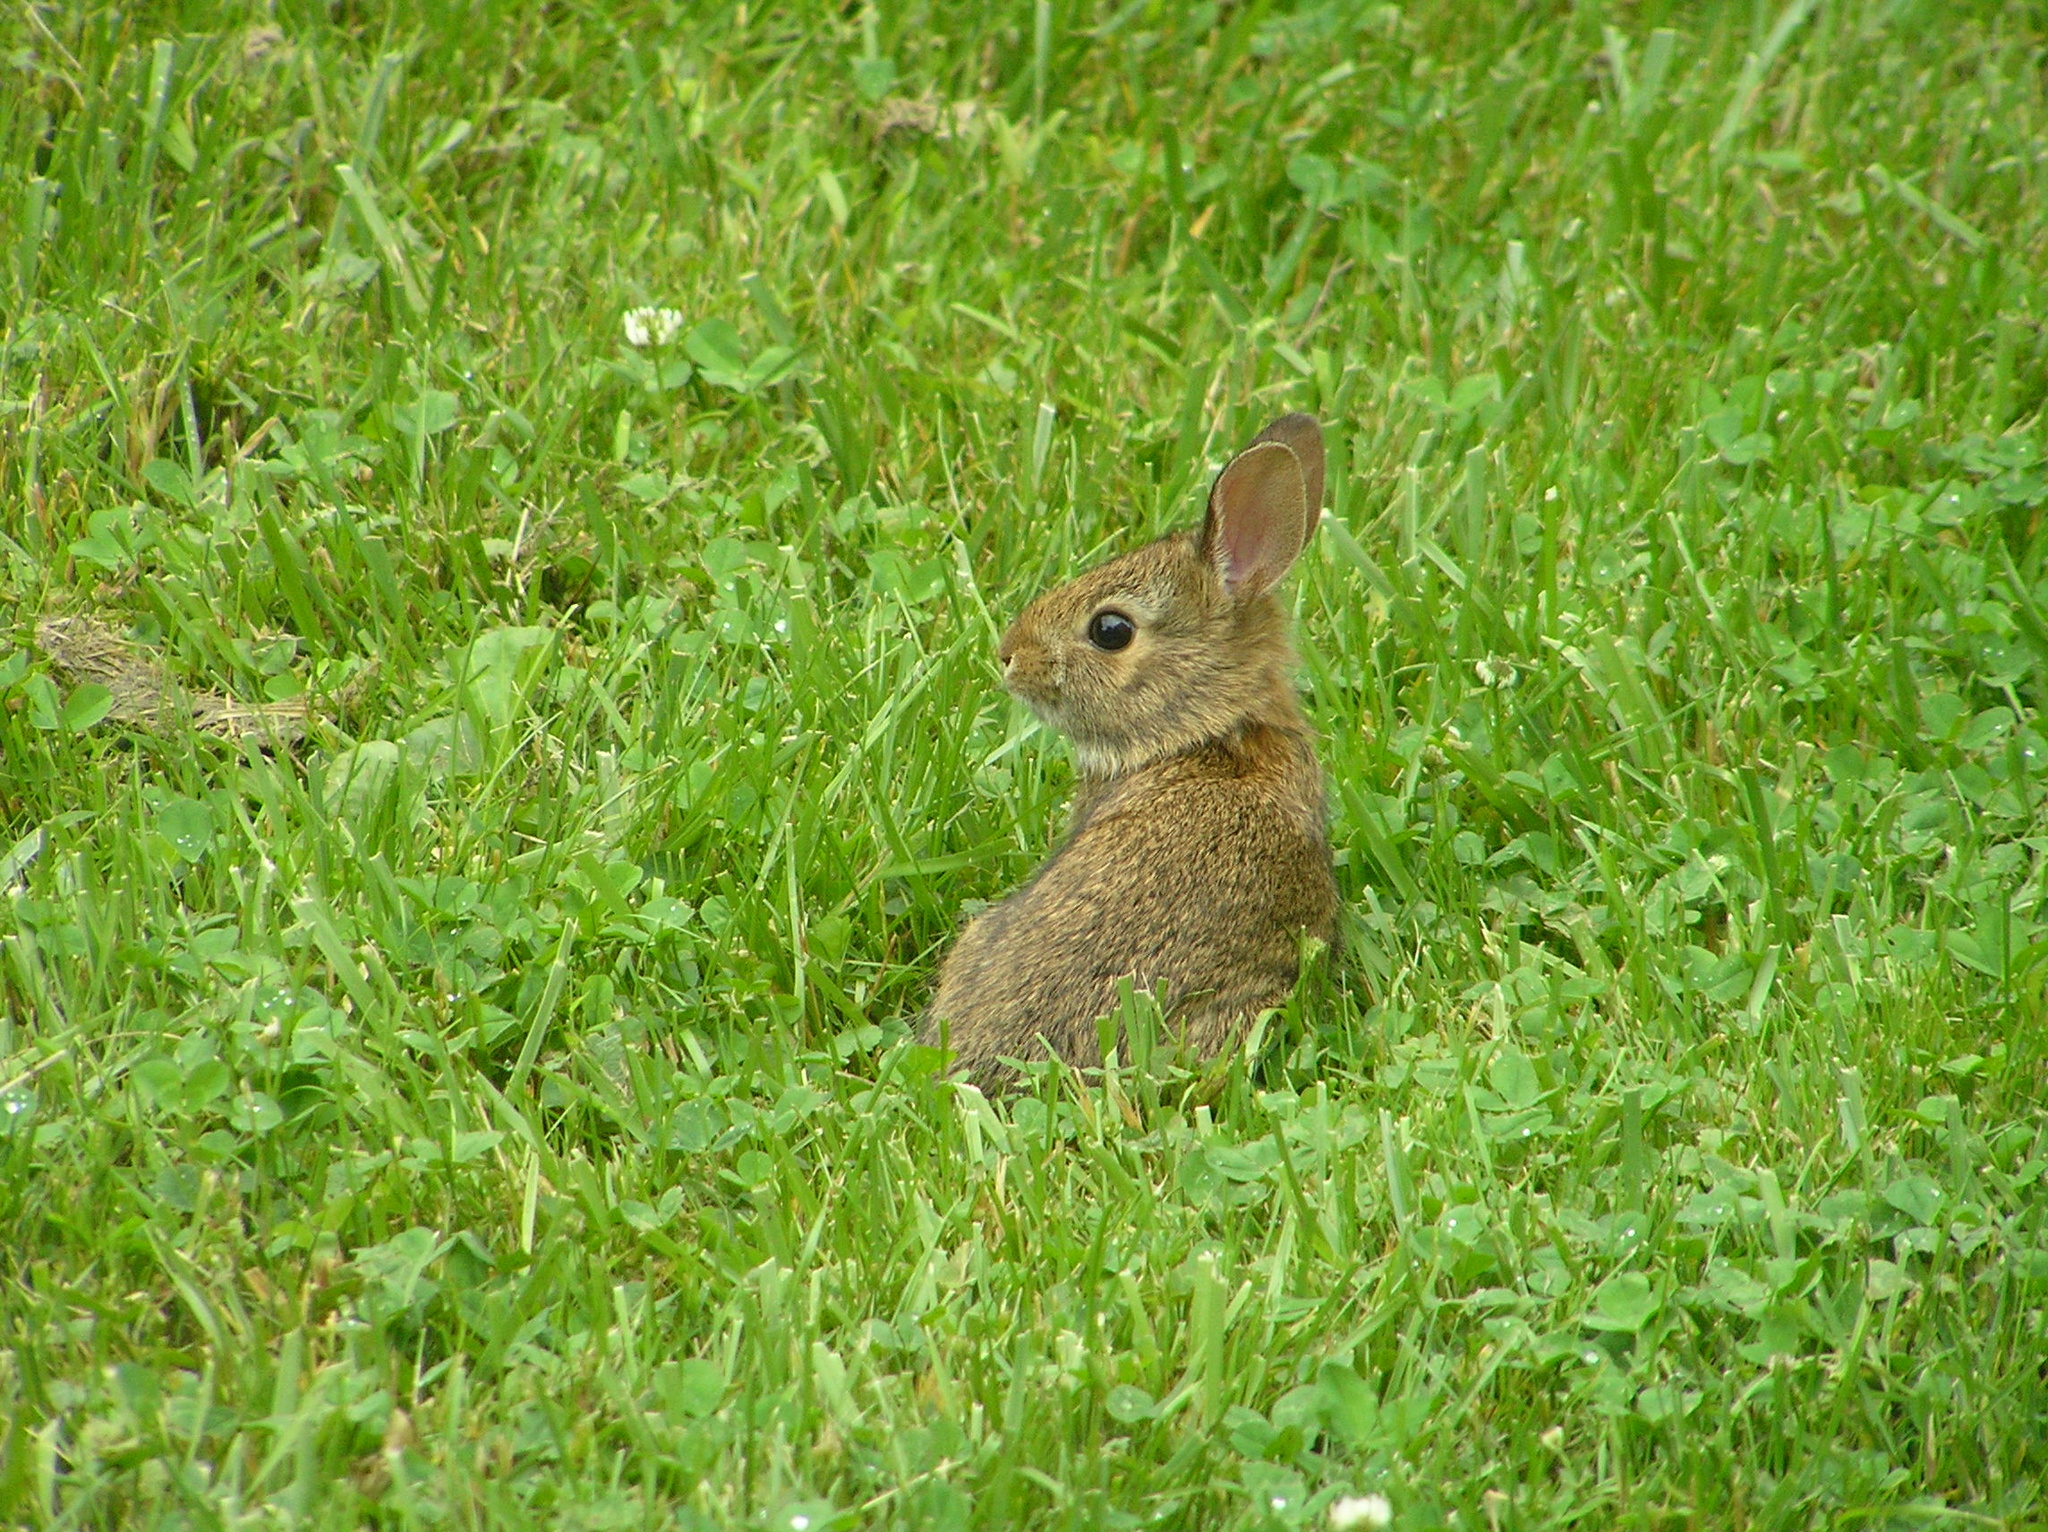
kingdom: Animalia
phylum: Chordata
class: Mammalia
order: Lagomorpha
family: Leporidae
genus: Sylvilagus
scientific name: Sylvilagus floridanus
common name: Eastern cottontail
